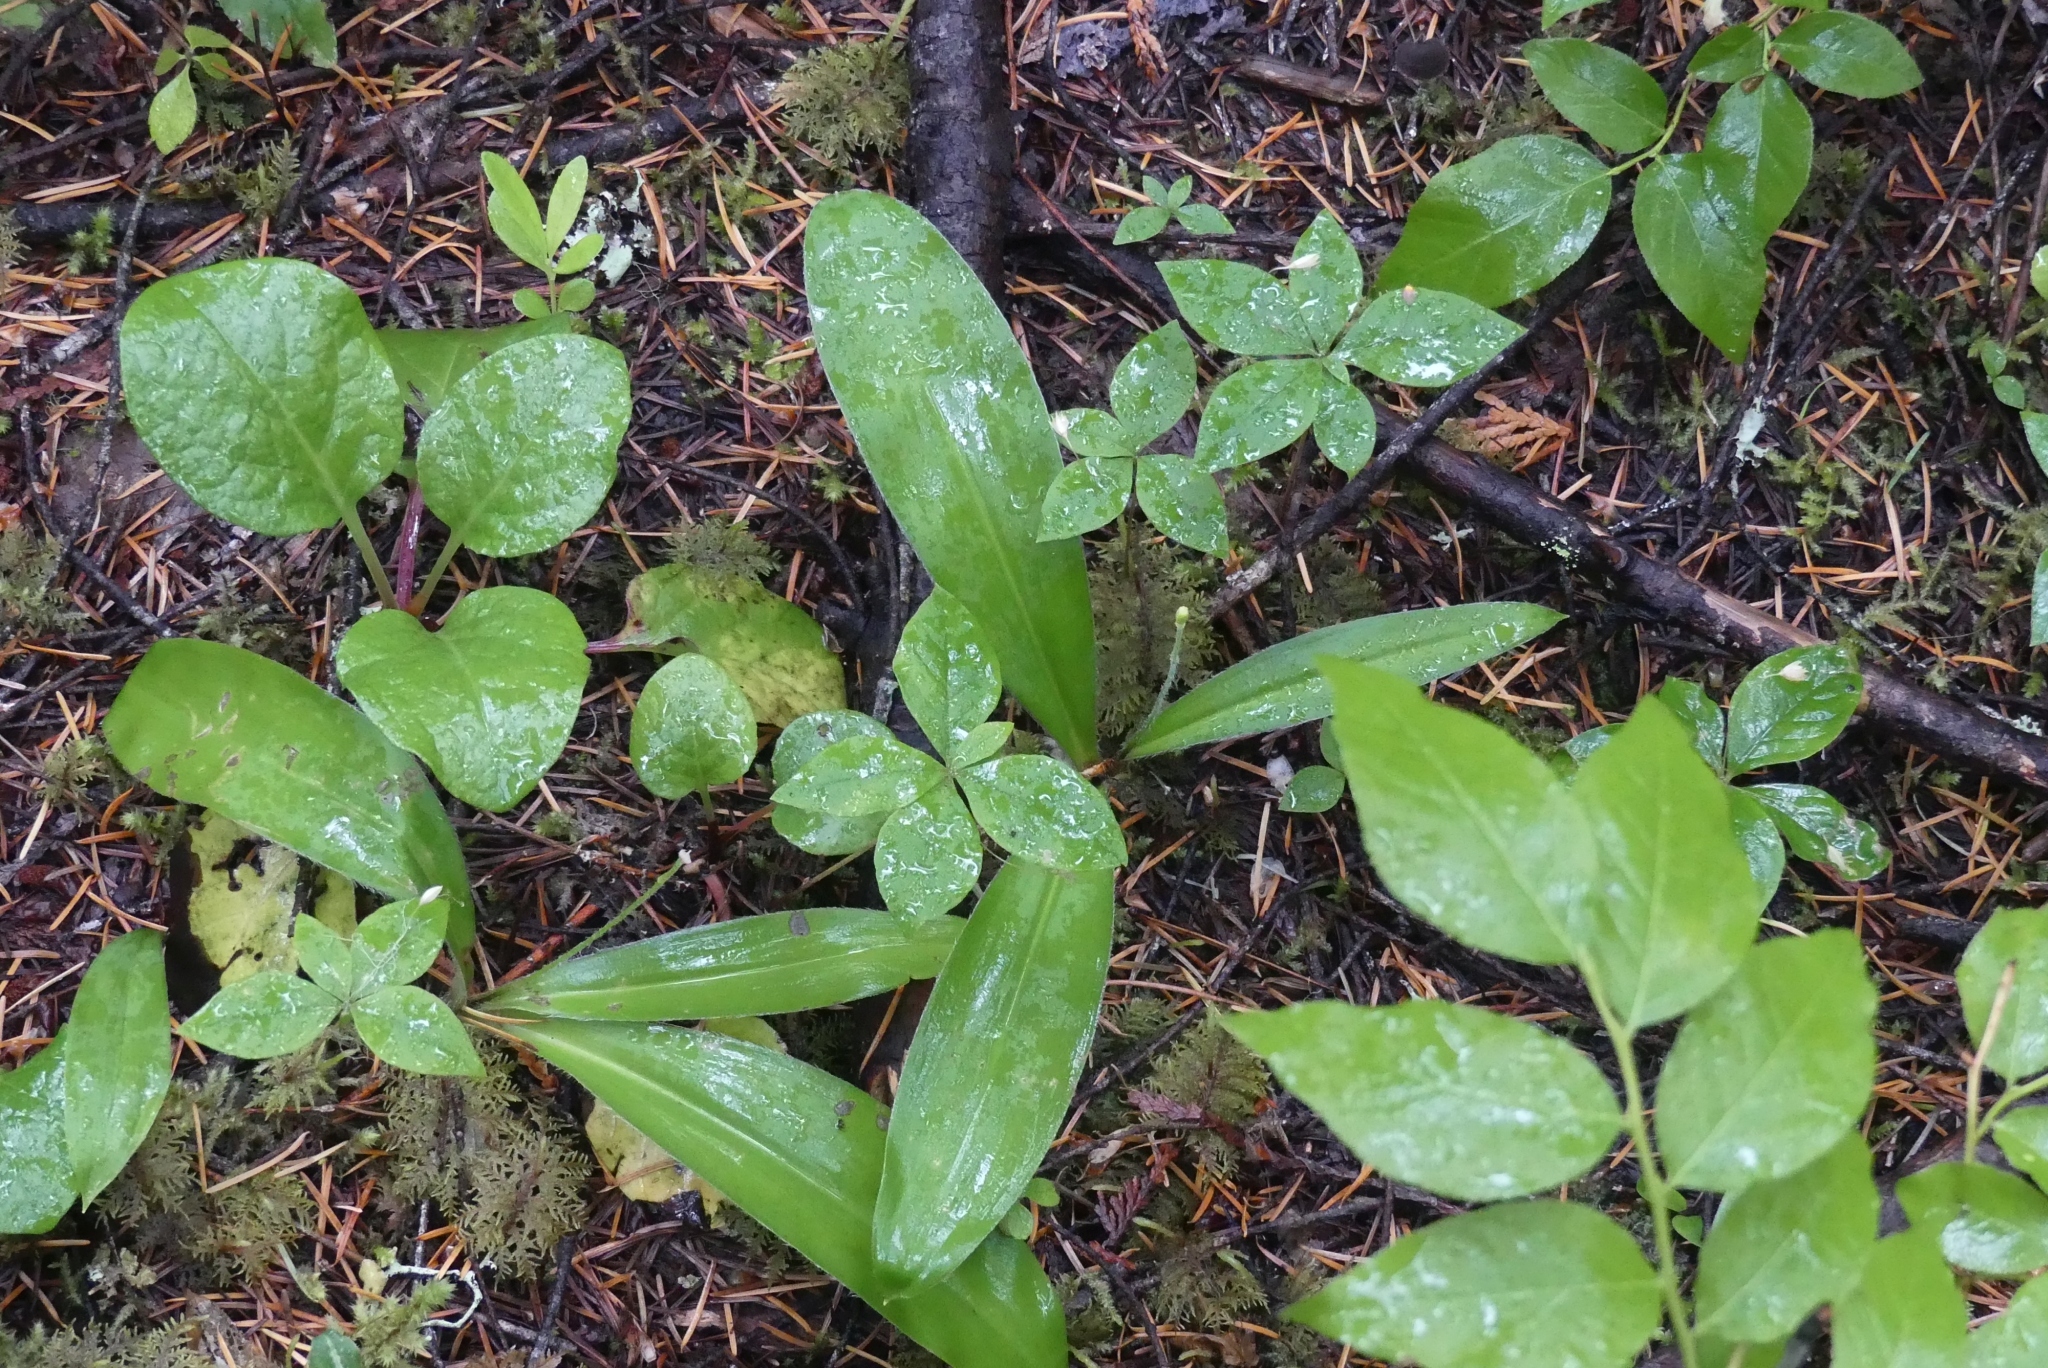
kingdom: Plantae
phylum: Tracheophyta
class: Liliopsida
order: Liliales
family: Liliaceae
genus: Clintonia
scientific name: Clintonia uniflora
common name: Queen's cup
